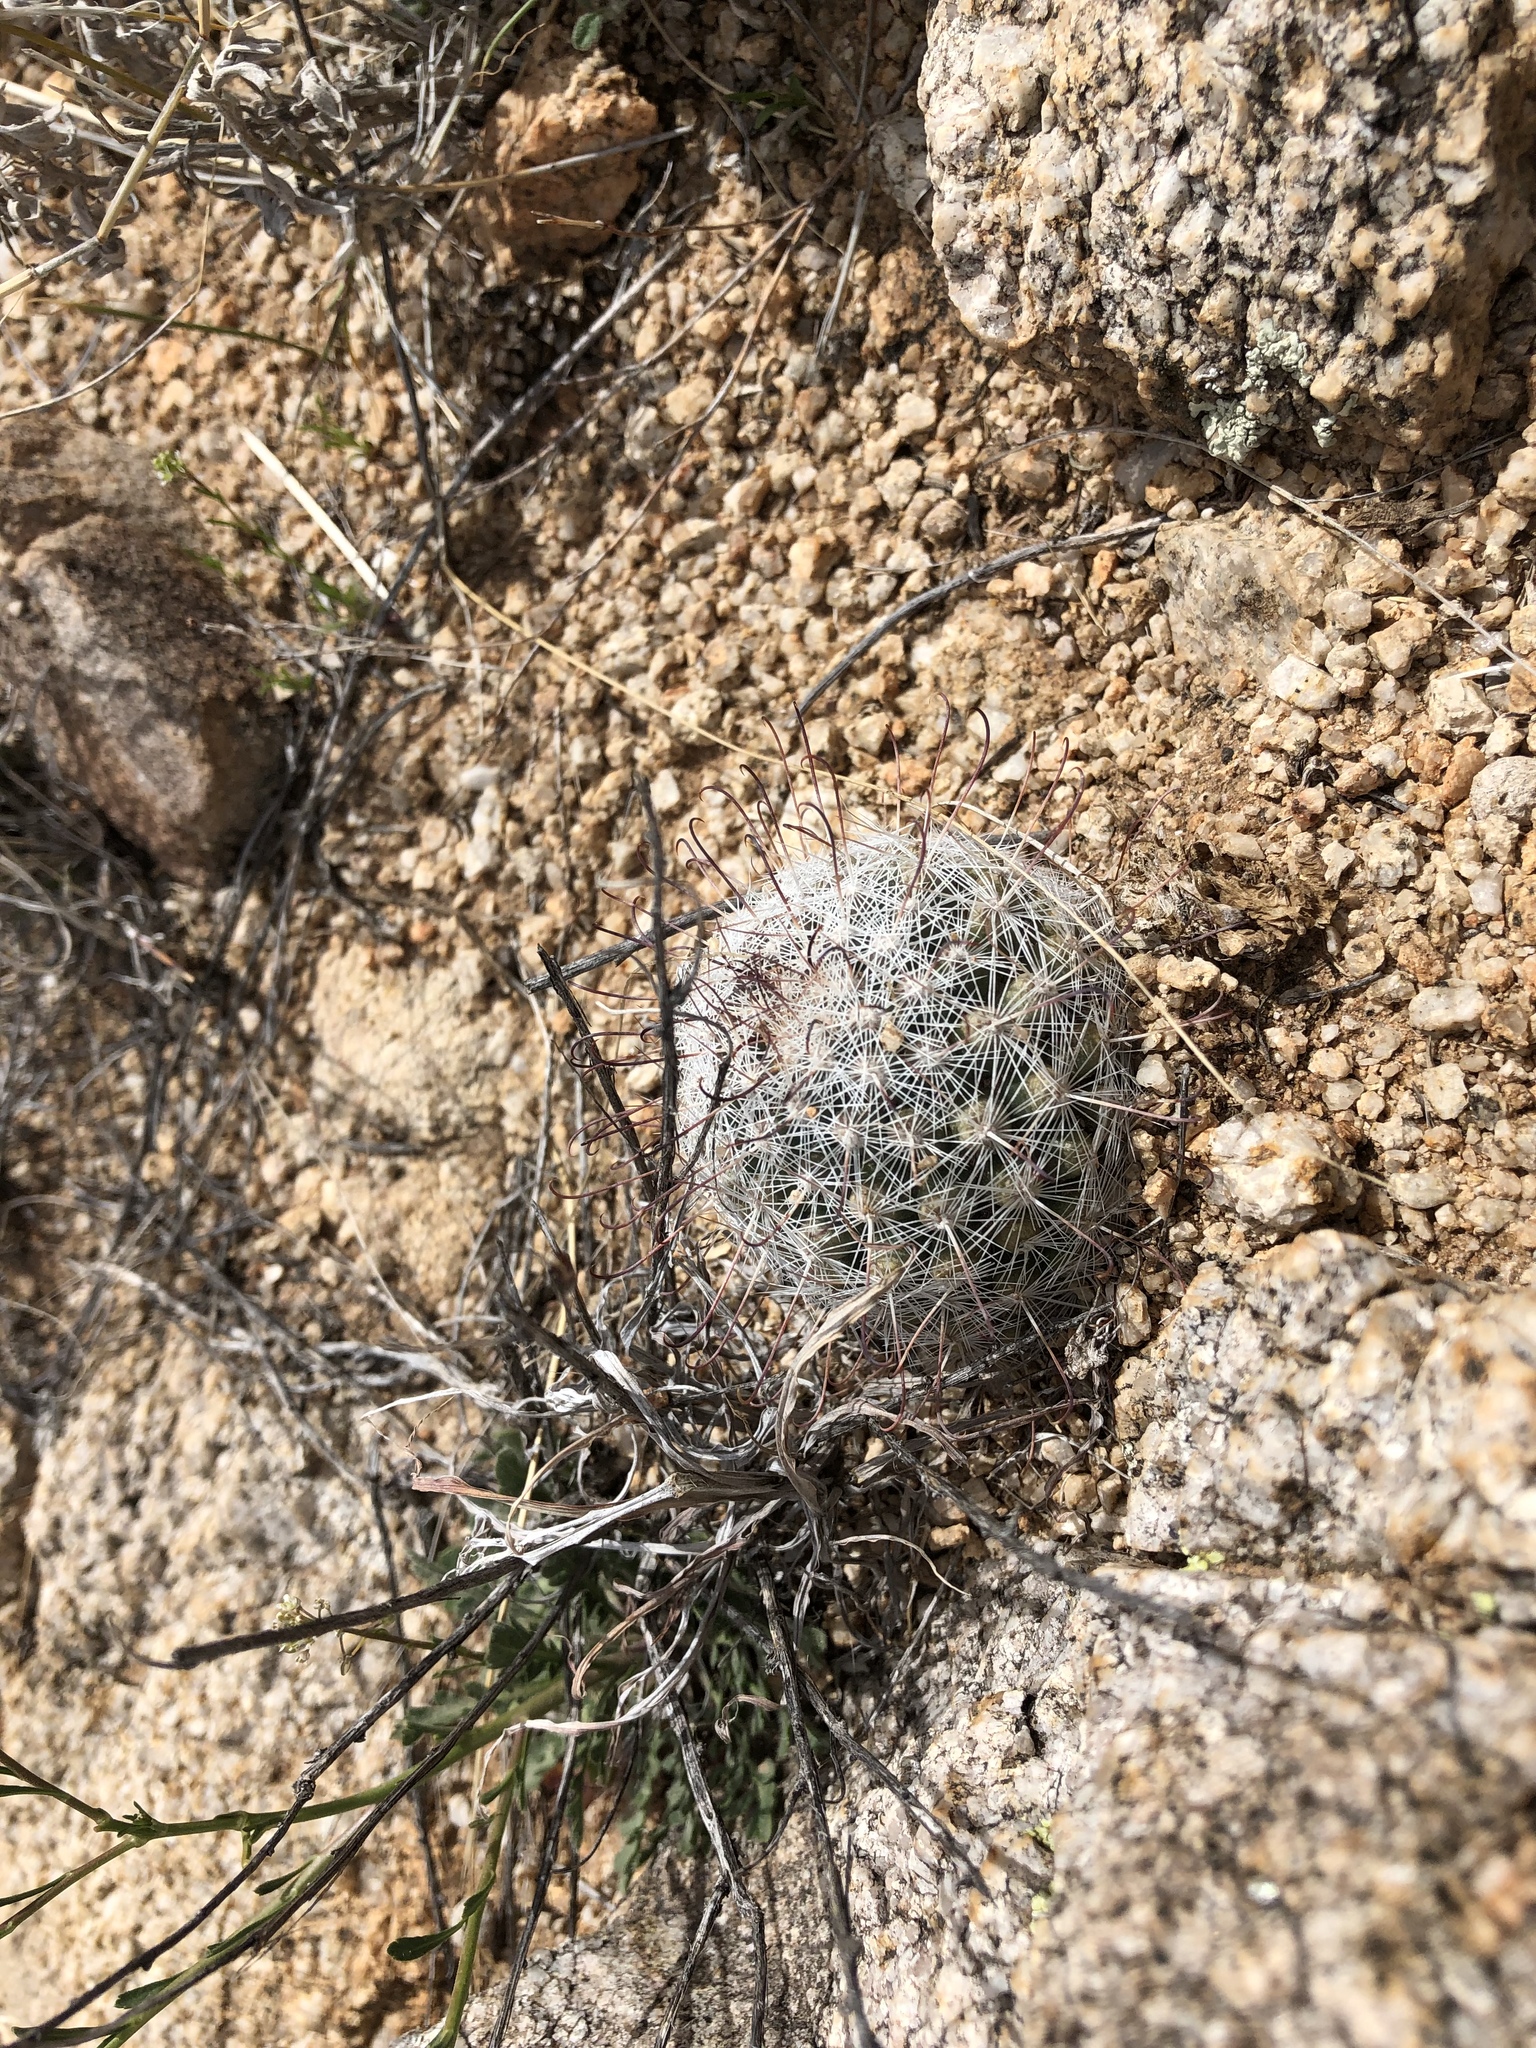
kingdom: Plantae
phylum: Tracheophyta
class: Magnoliopsida
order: Caryophyllales
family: Cactaceae
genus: Cochemiea
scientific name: Cochemiea grahamii
